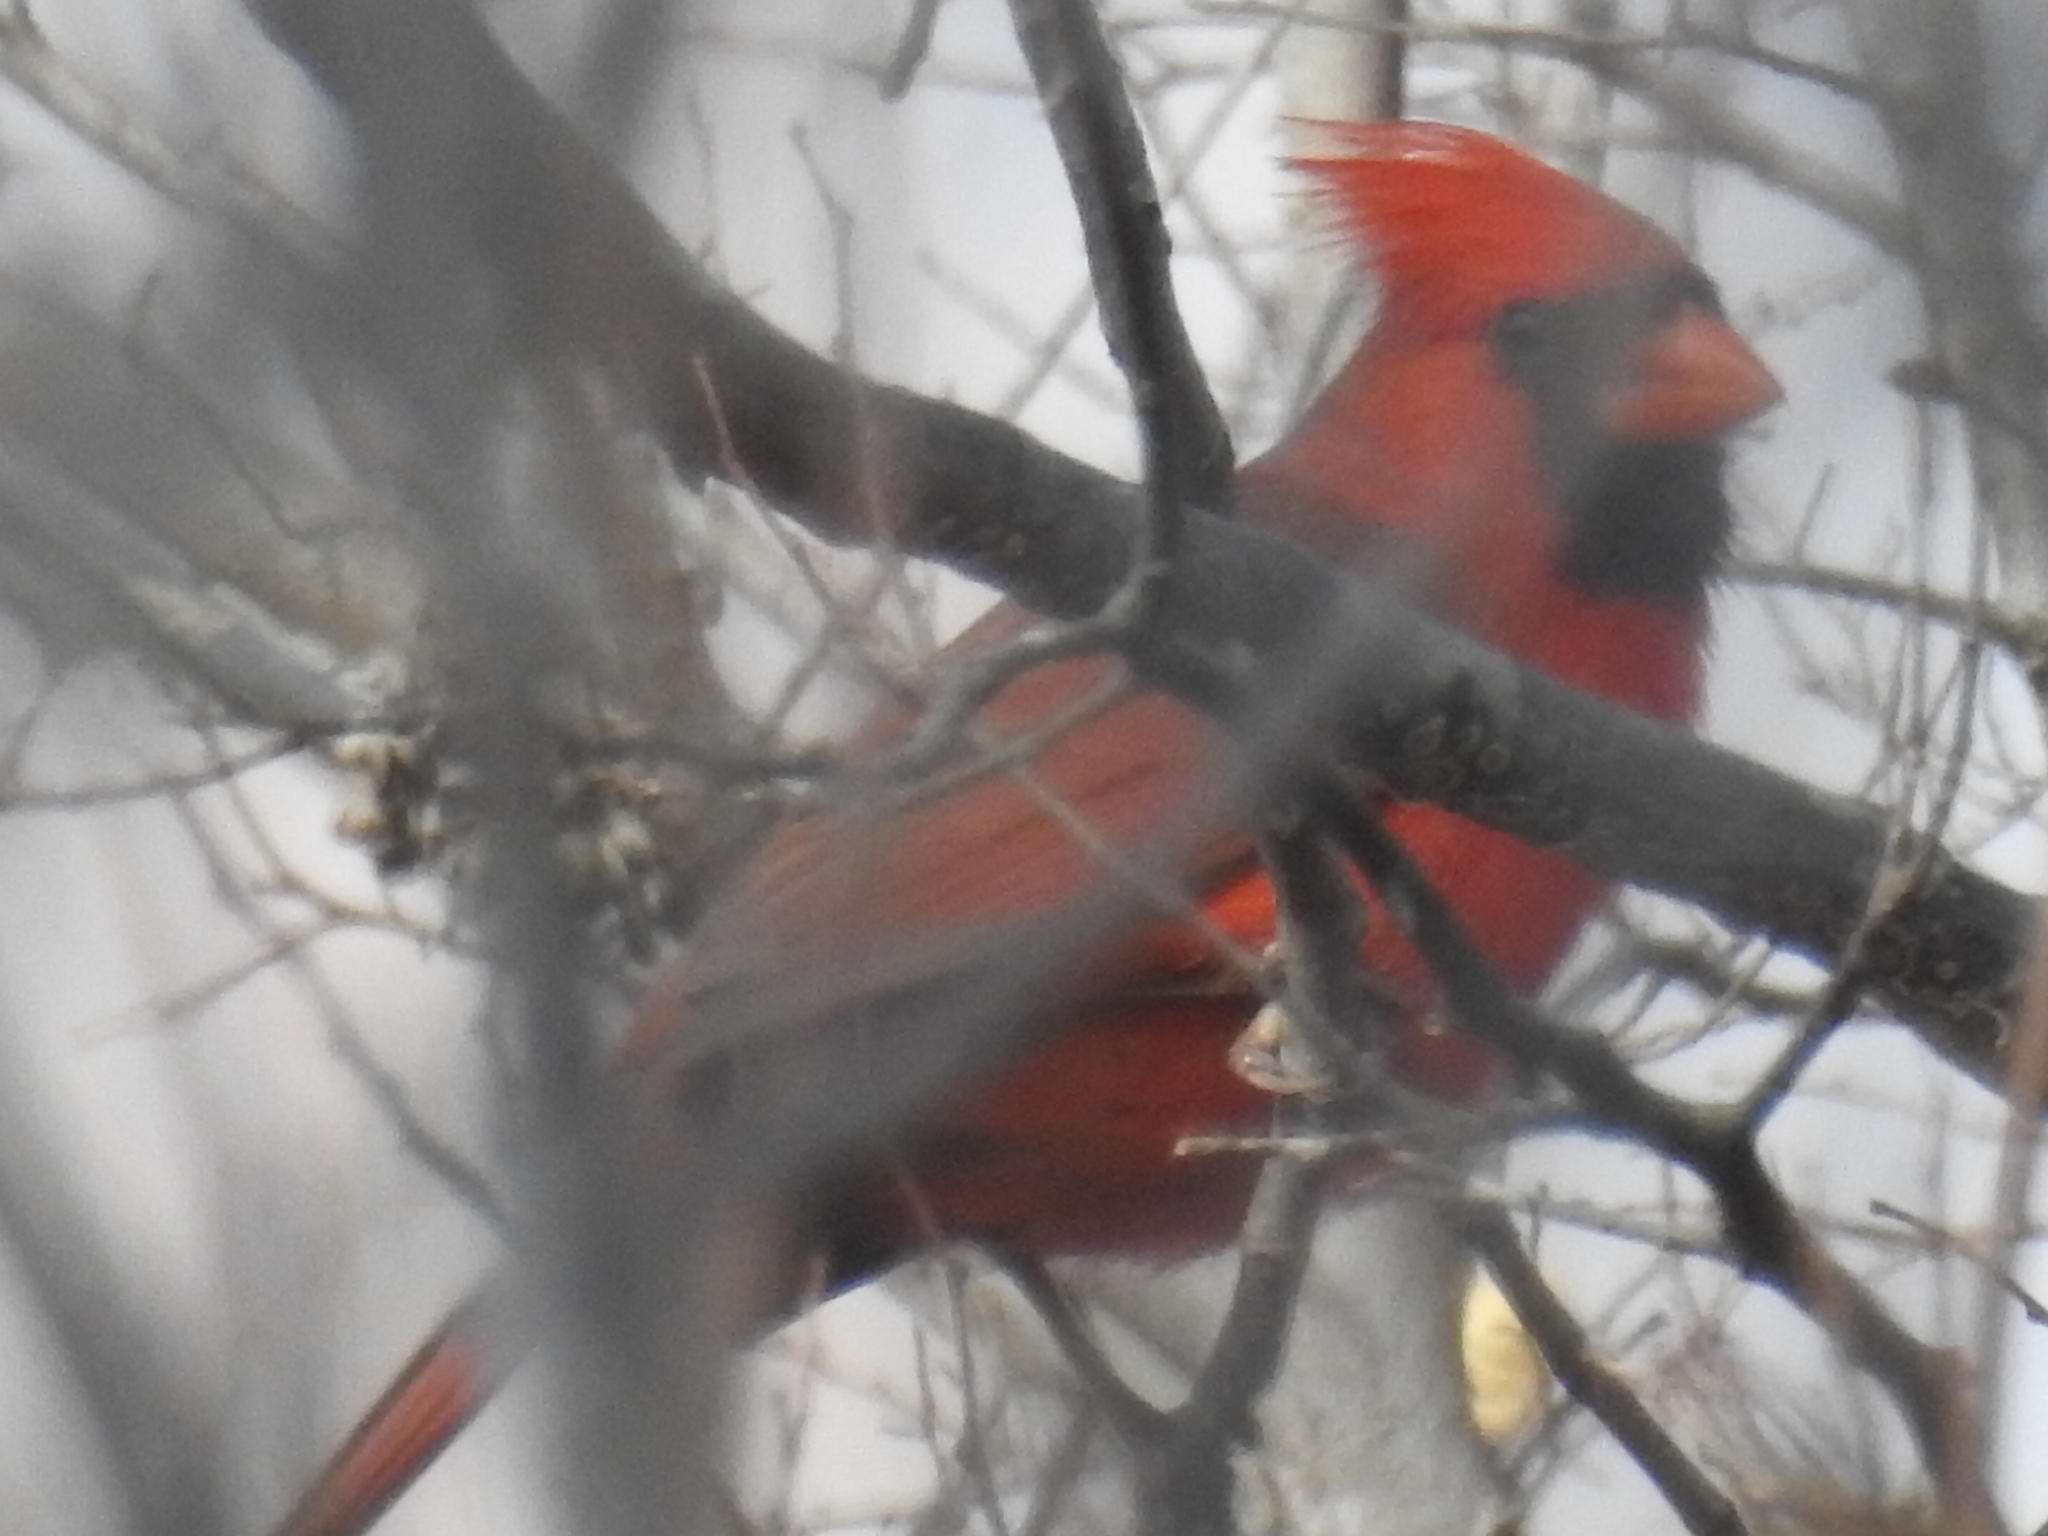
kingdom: Animalia
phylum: Chordata
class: Aves
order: Passeriformes
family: Cardinalidae
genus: Cardinalis
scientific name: Cardinalis cardinalis
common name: Northern cardinal
